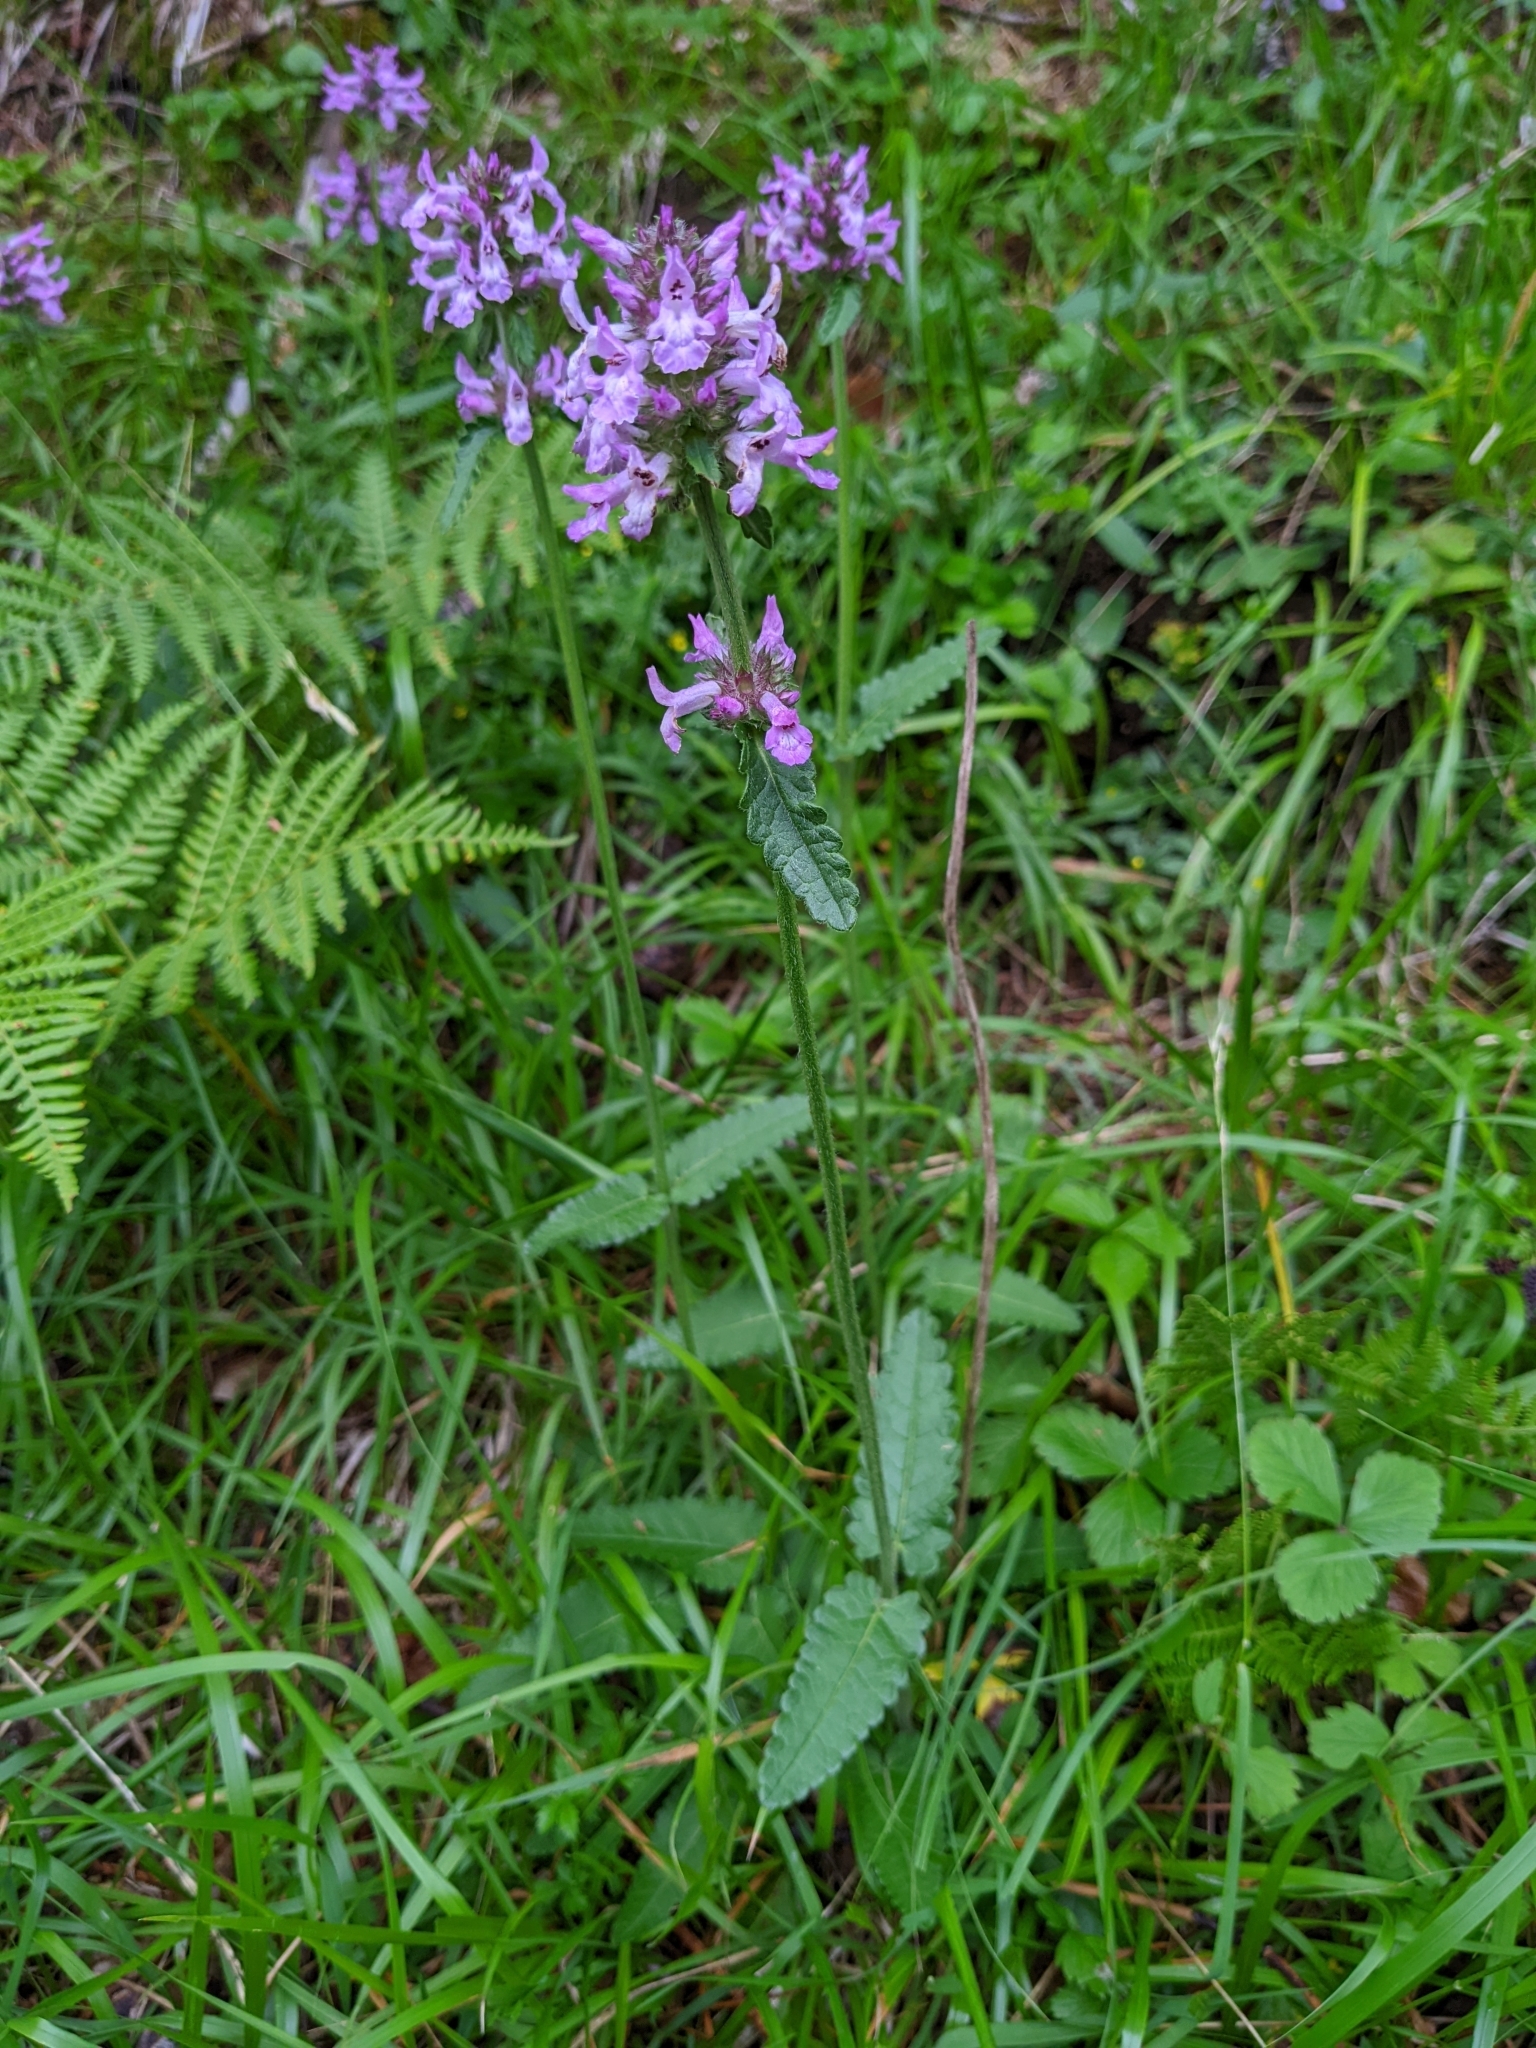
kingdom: Plantae
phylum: Tracheophyta
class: Magnoliopsida
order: Lamiales
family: Lamiaceae
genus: Betonica
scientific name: Betonica officinalis
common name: Bishop's-wort
